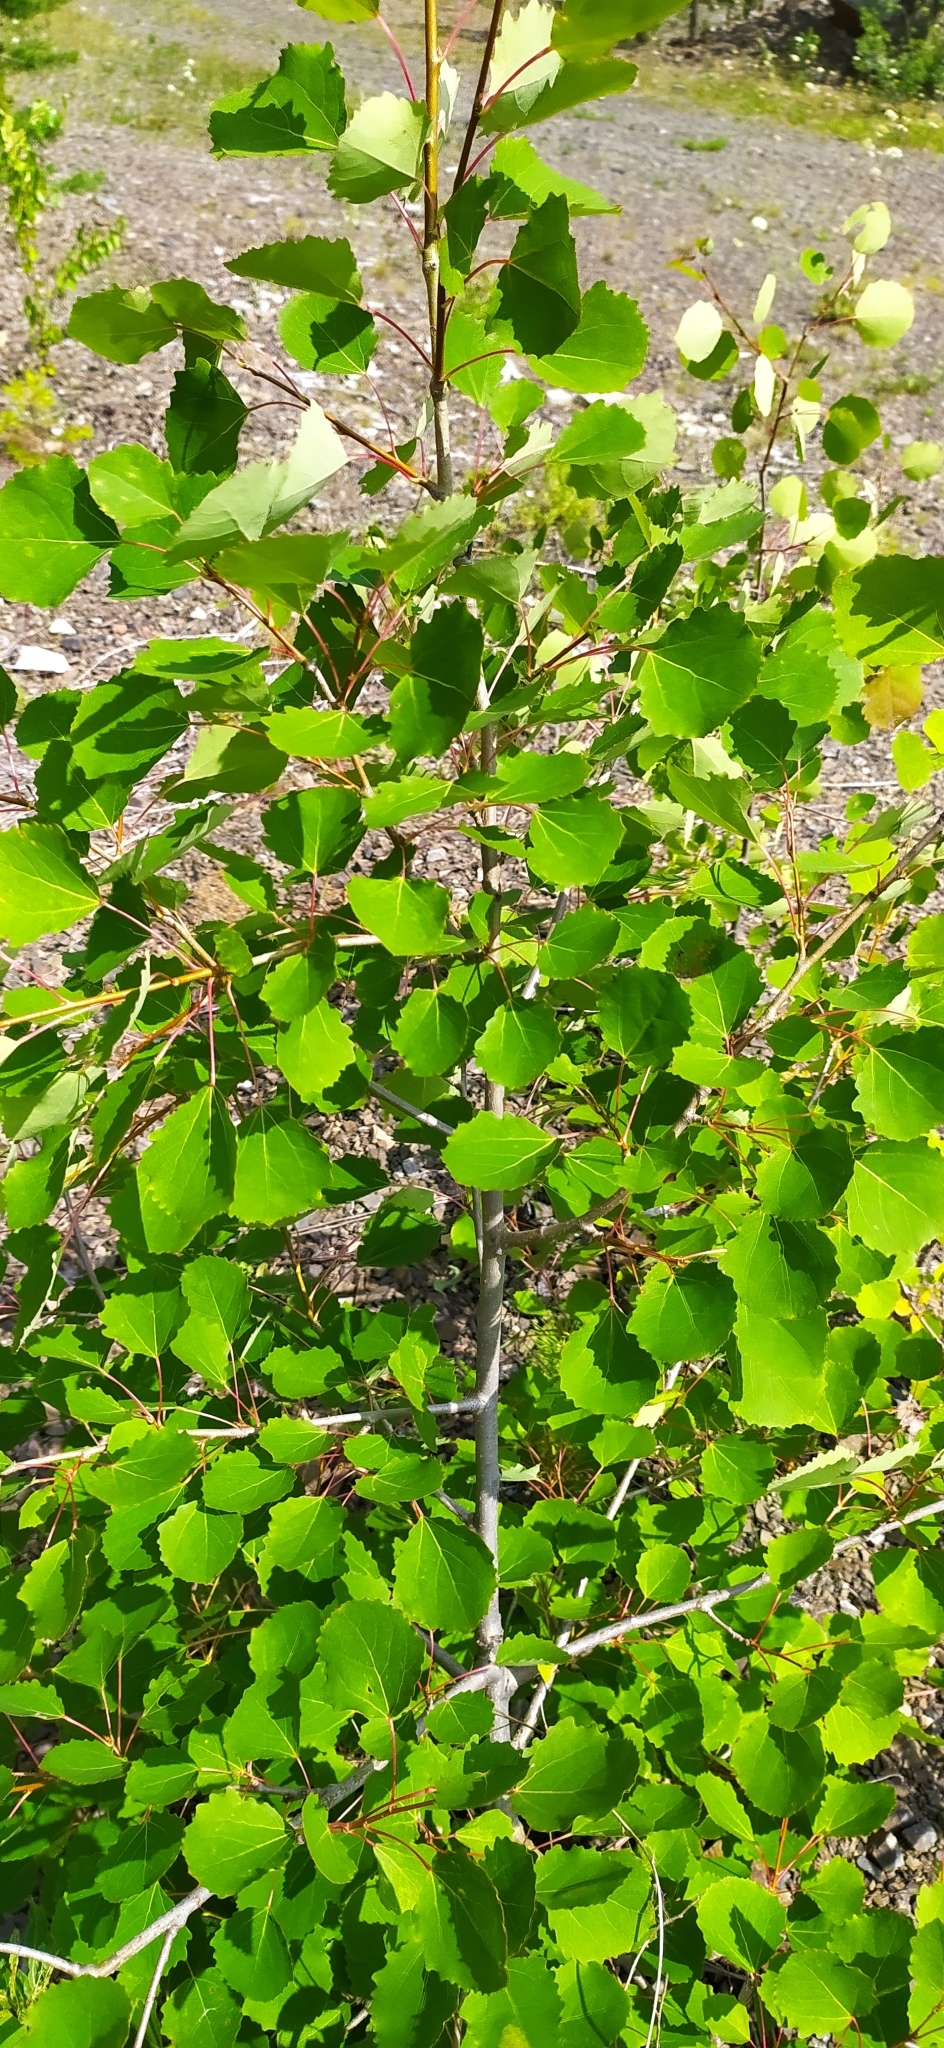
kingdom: Plantae
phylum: Tracheophyta
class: Magnoliopsida
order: Malpighiales
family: Salicaceae
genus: Populus
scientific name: Populus tremula
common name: European aspen
